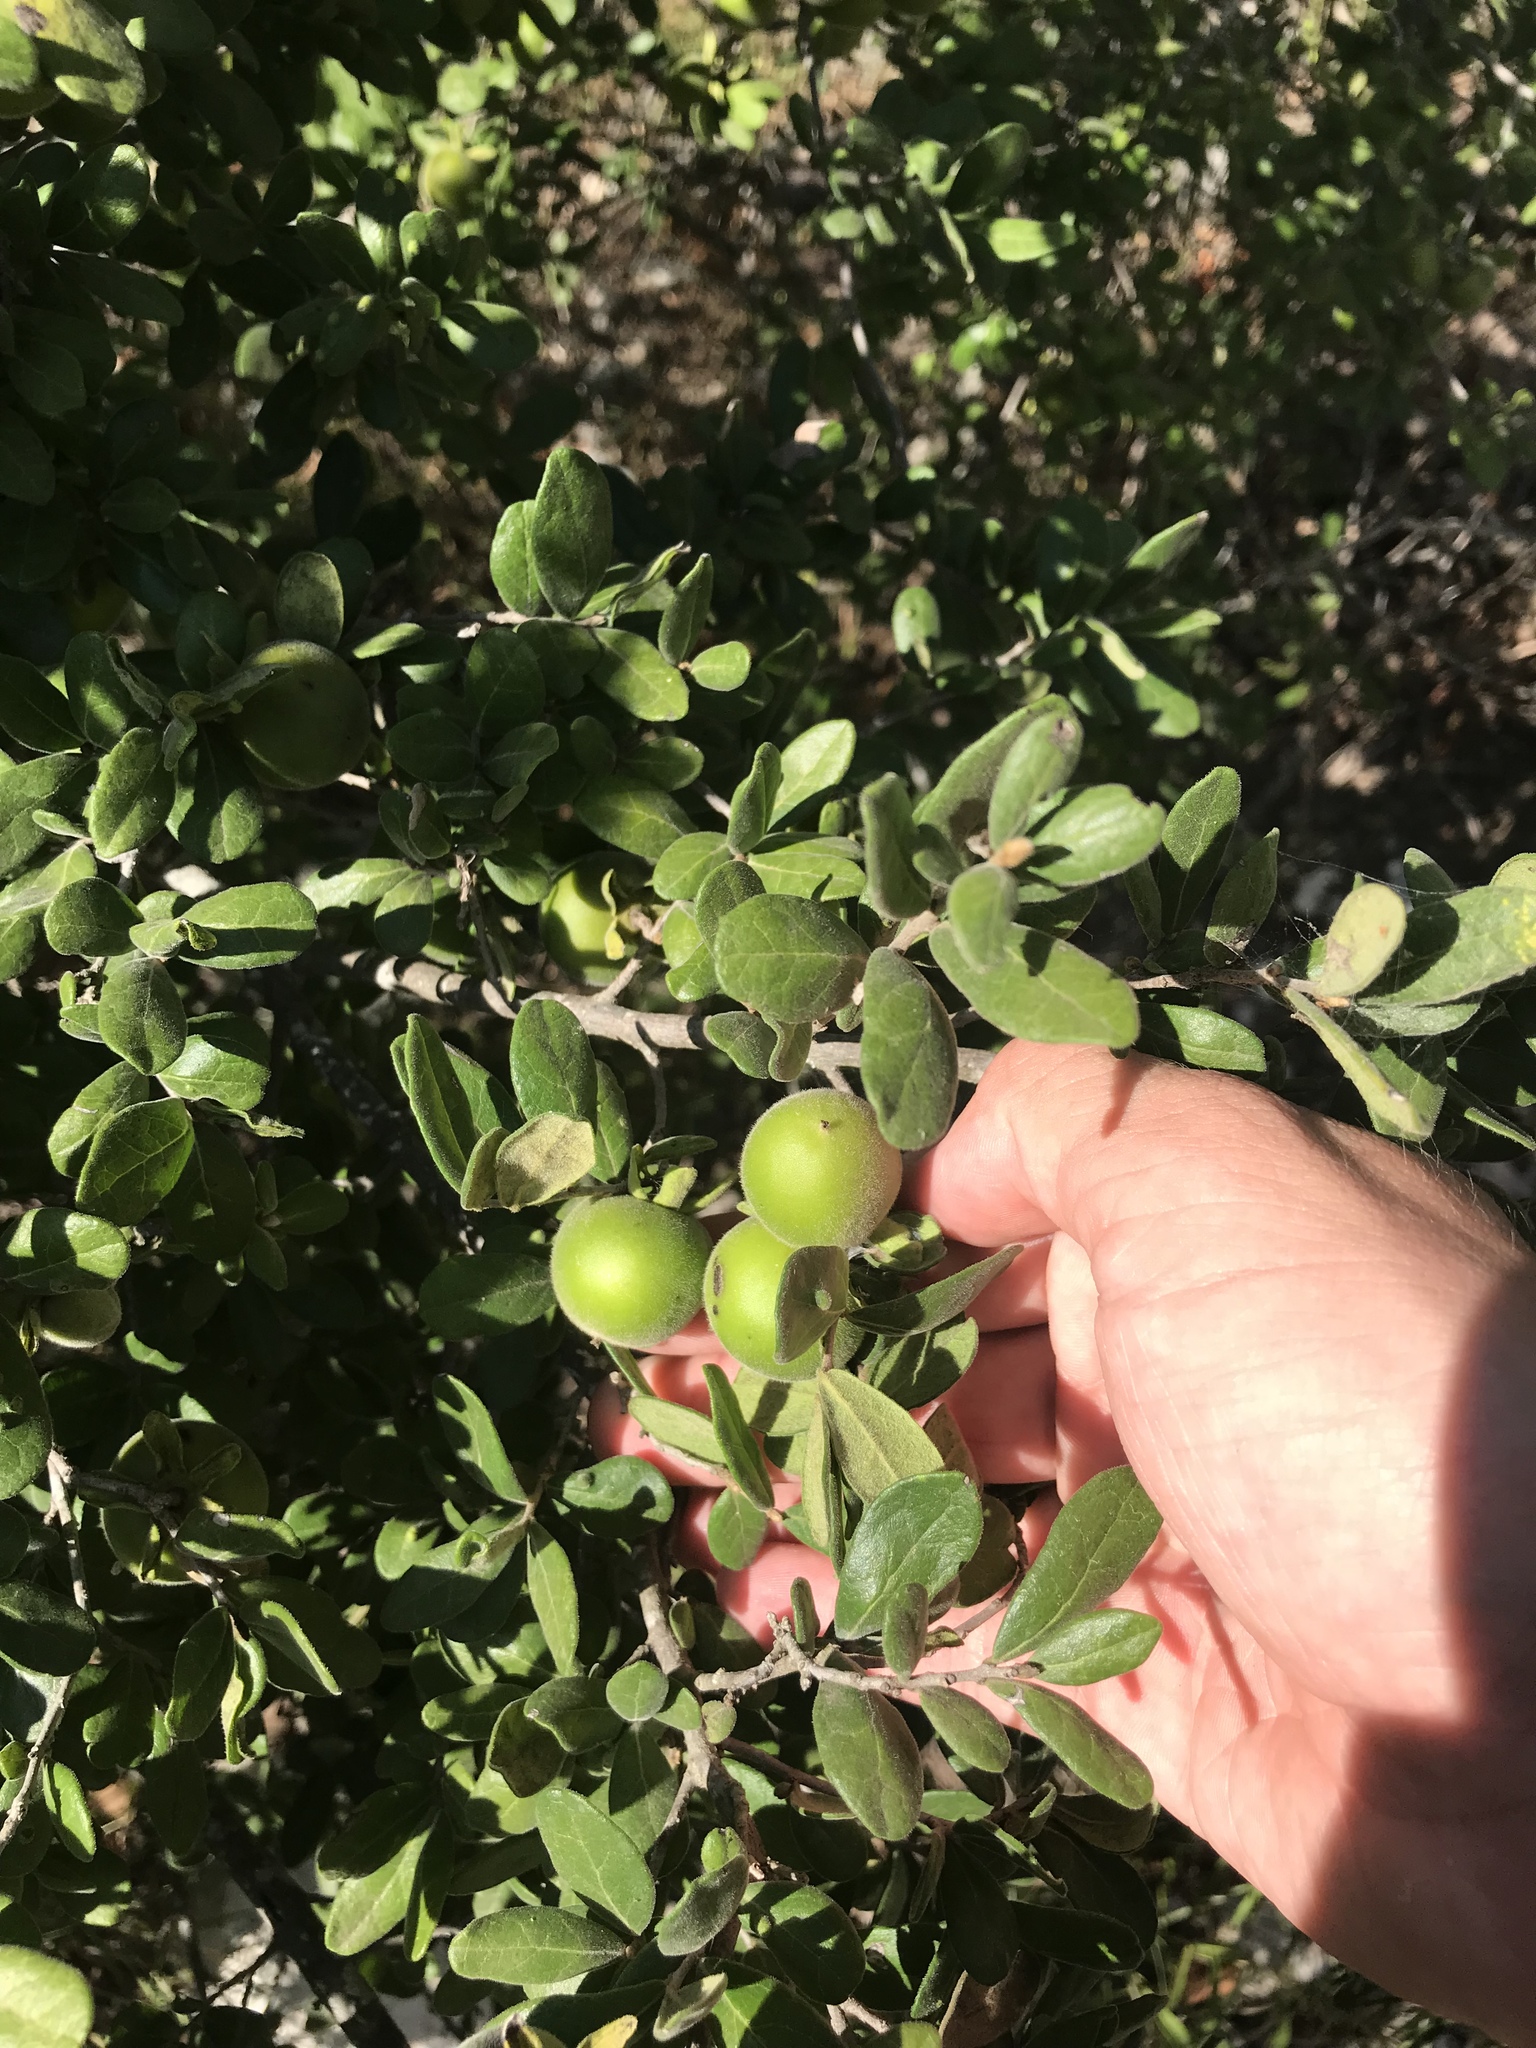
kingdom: Plantae
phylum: Tracheophyta
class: Magnoliopsida
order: Ericales
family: Ebenaceae
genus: Diospyros
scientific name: Diospyros texana
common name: Texas persimmon
